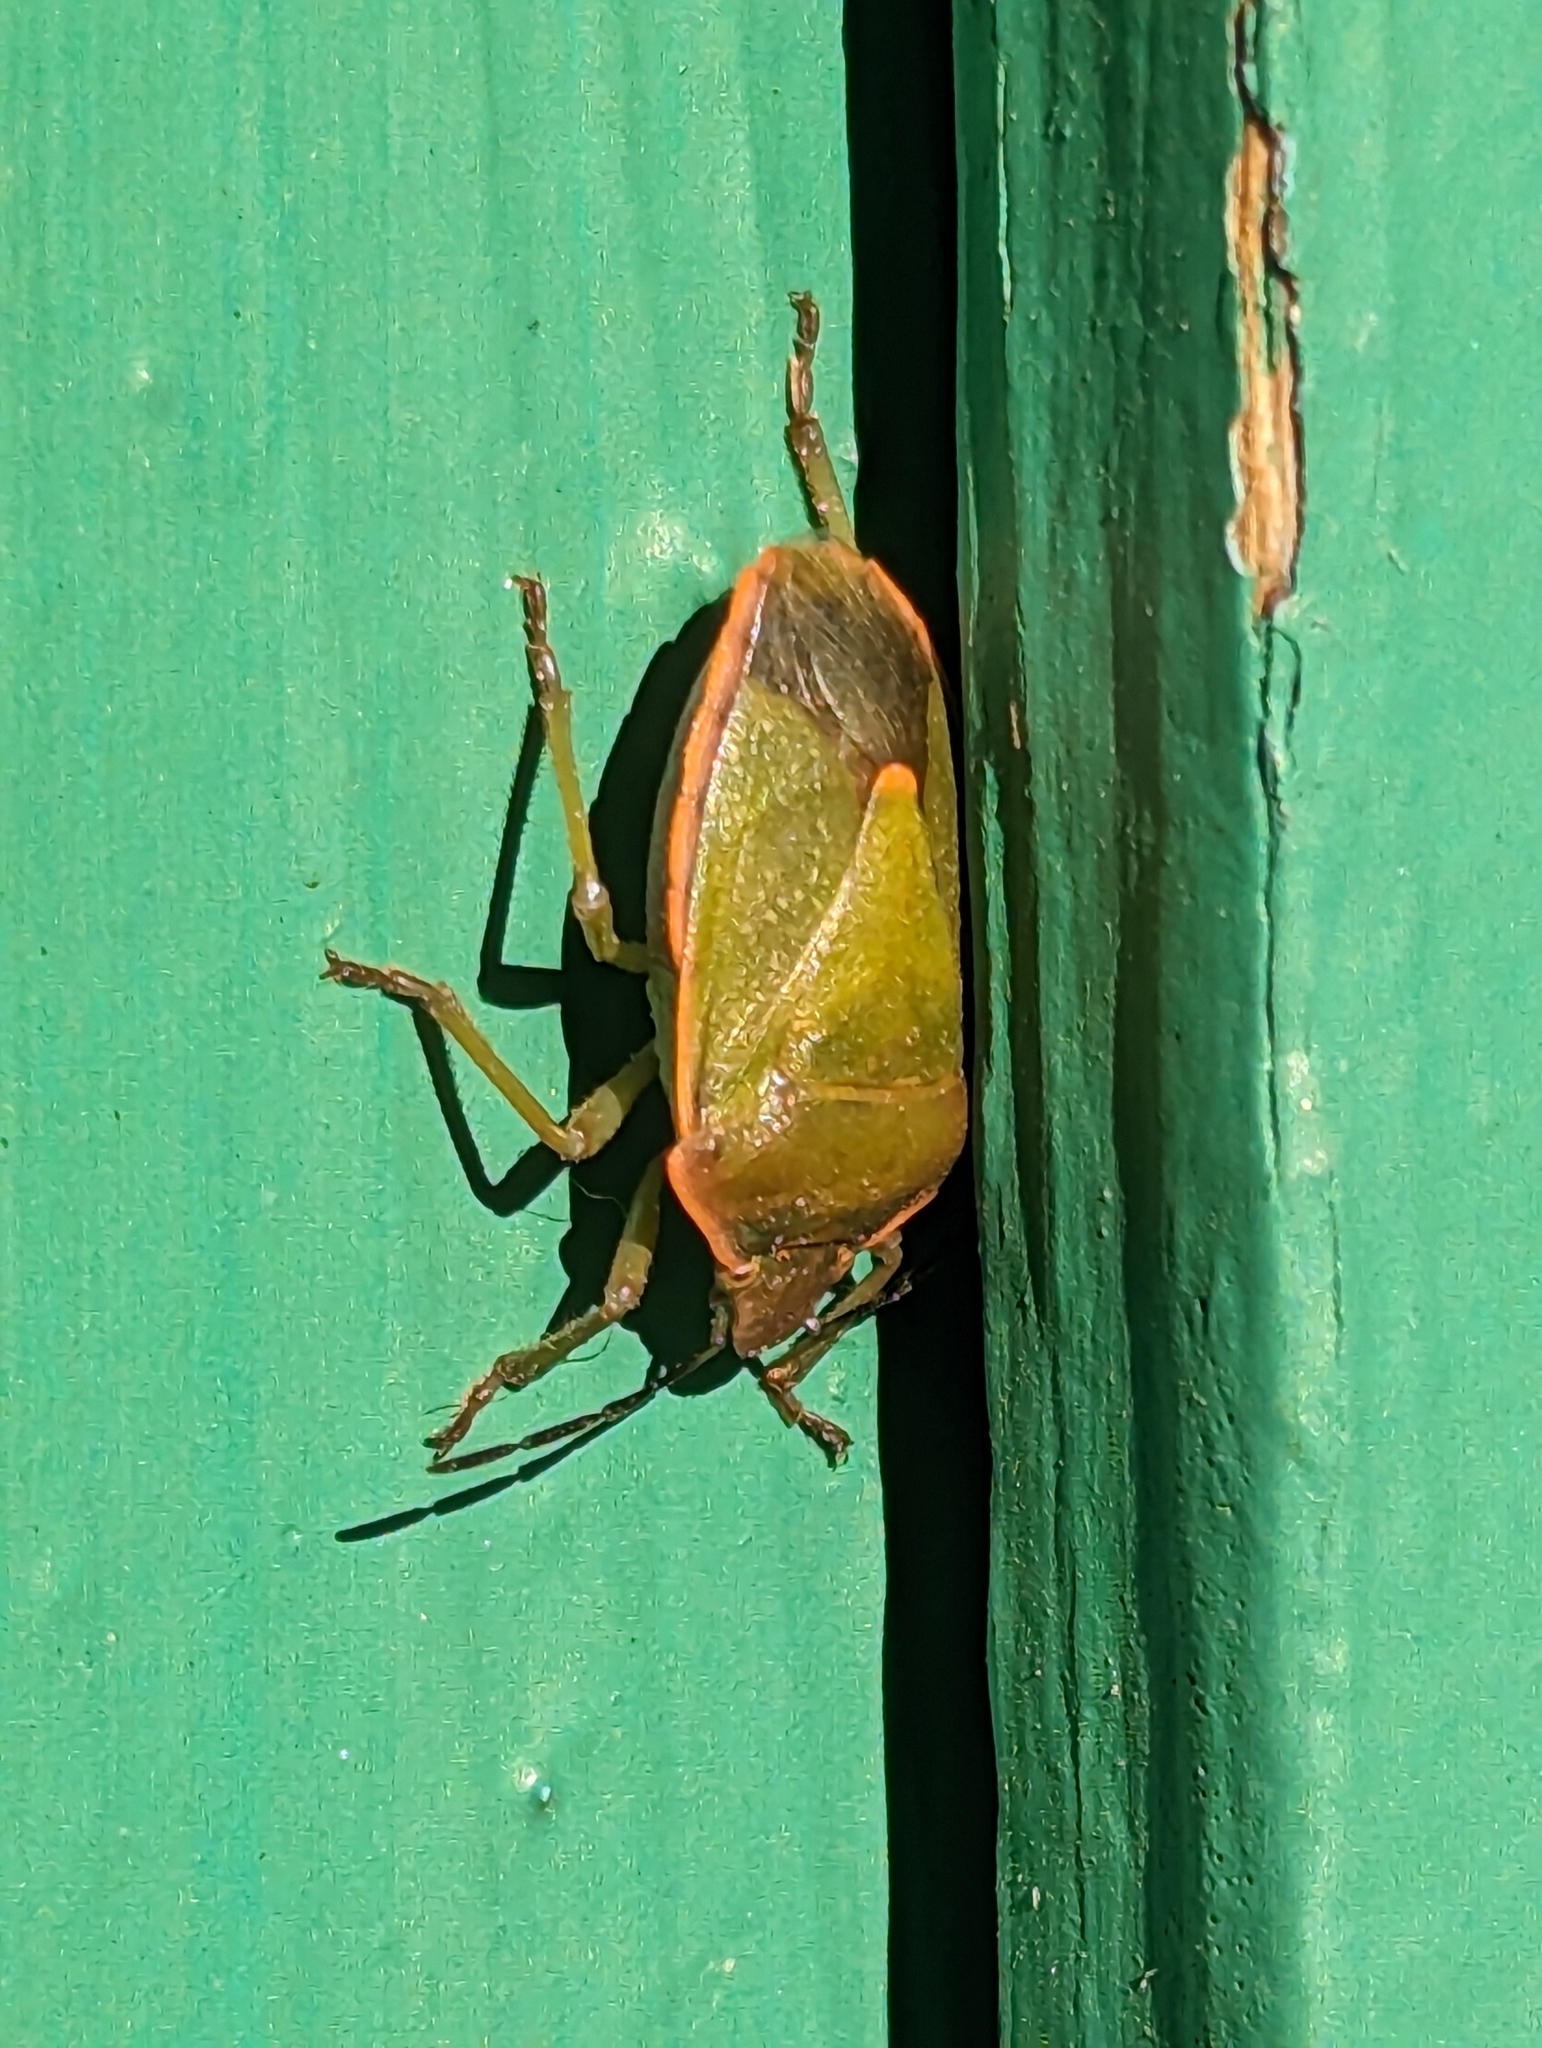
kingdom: Animalia
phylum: Arthropoda
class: Insecta
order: Hemiptera
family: Pentatomidae
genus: Chlorochroa
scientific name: Chlorochroa ligata
